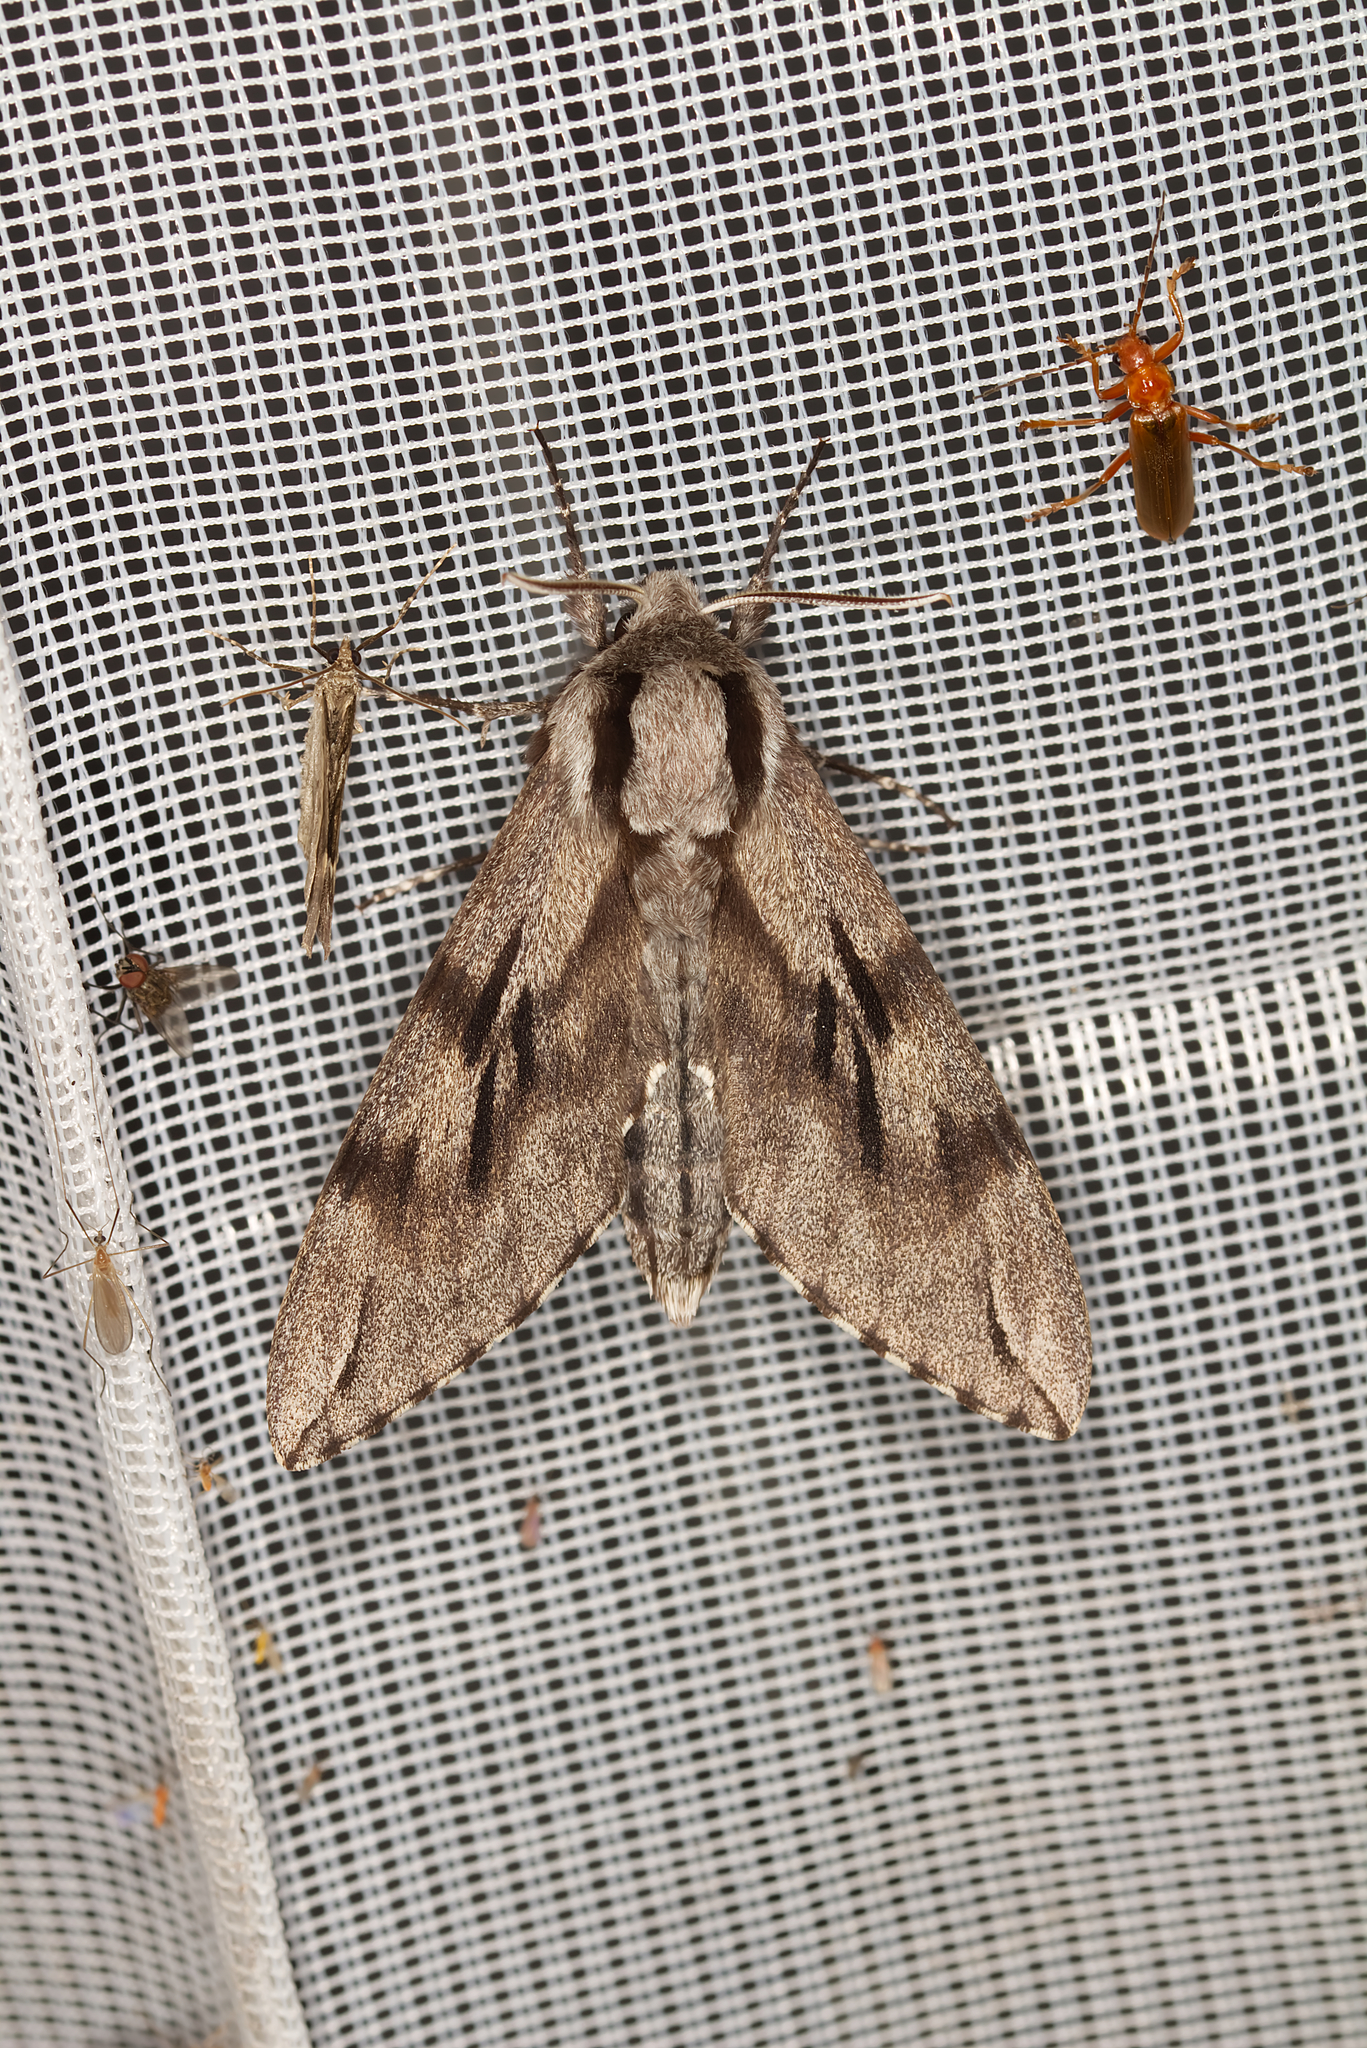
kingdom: Animalia
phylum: Arthropoda
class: Insecta
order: Lepidoptera
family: Sphingidae
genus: Sphinx
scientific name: Sphinx pinastri
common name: Pine hawk-moth
